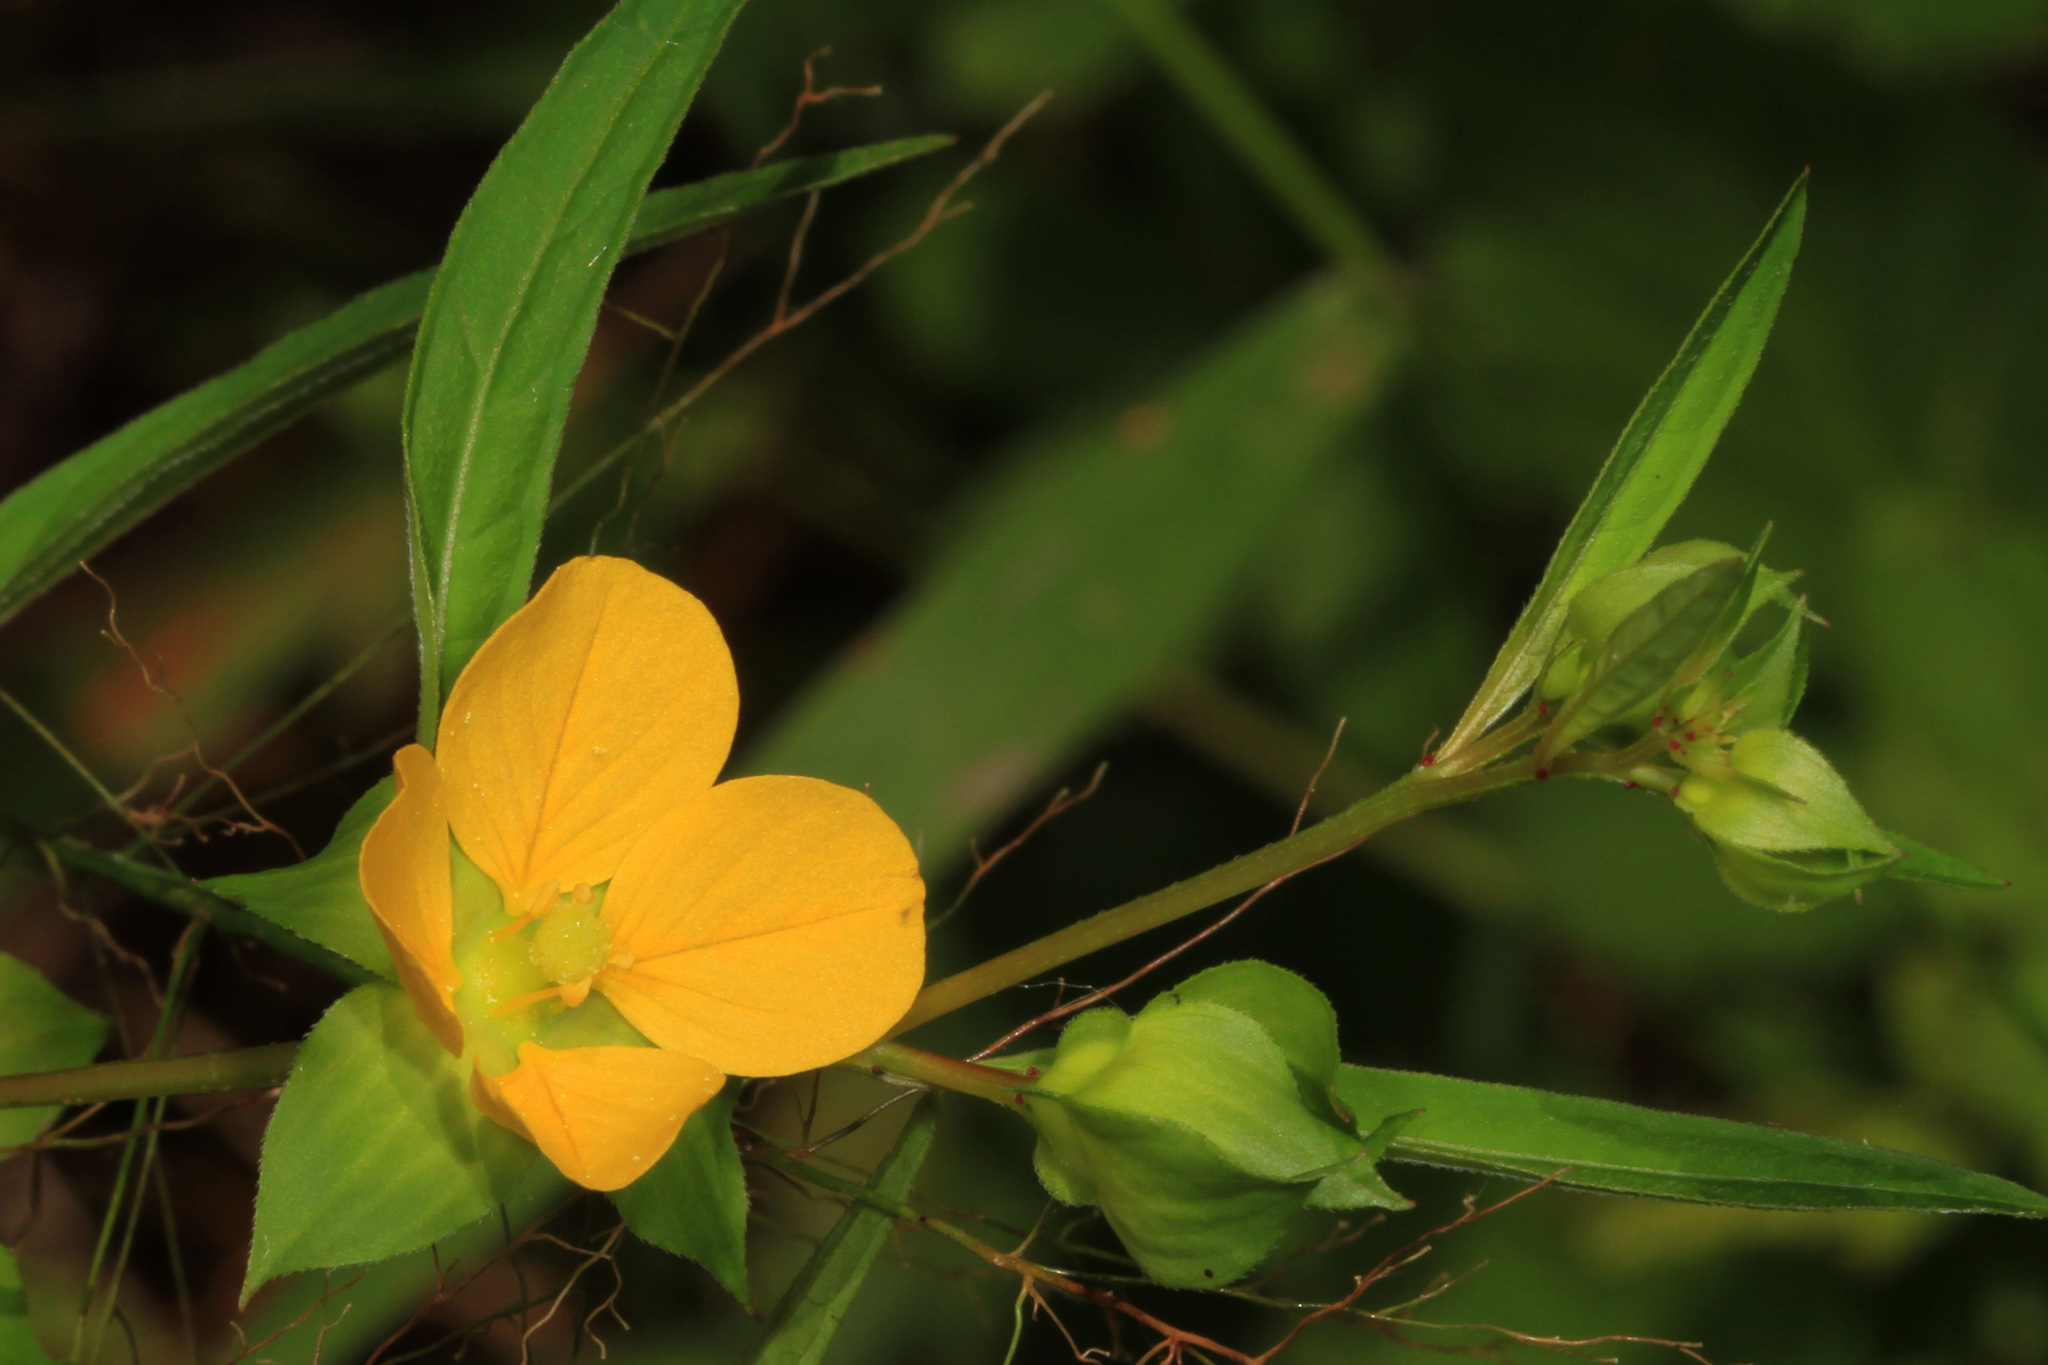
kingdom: Plantae
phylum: Tracheophyta
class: Magnoliopsida
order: Myrtales
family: Onagraceae
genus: Ludwigia
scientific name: Ludwigia alternifolia
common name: Rattlebox
